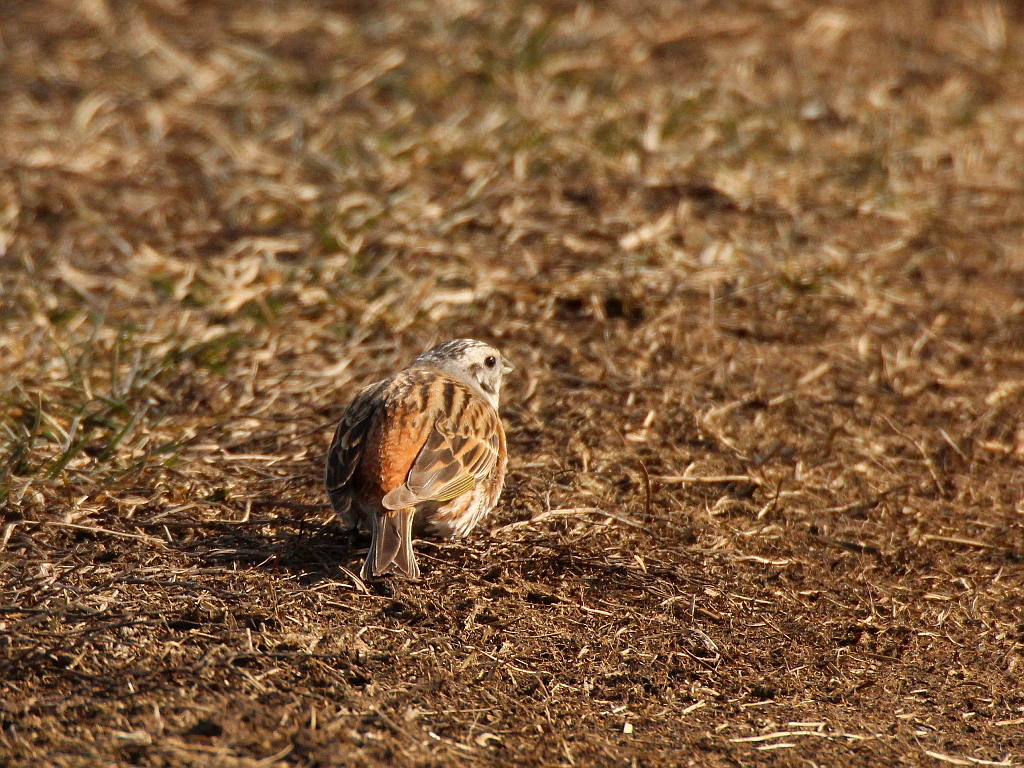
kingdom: Animalia
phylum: Chordata
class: Aves
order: Passeriformes
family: Emberizidae
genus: Emberiza
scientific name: Emberiza
